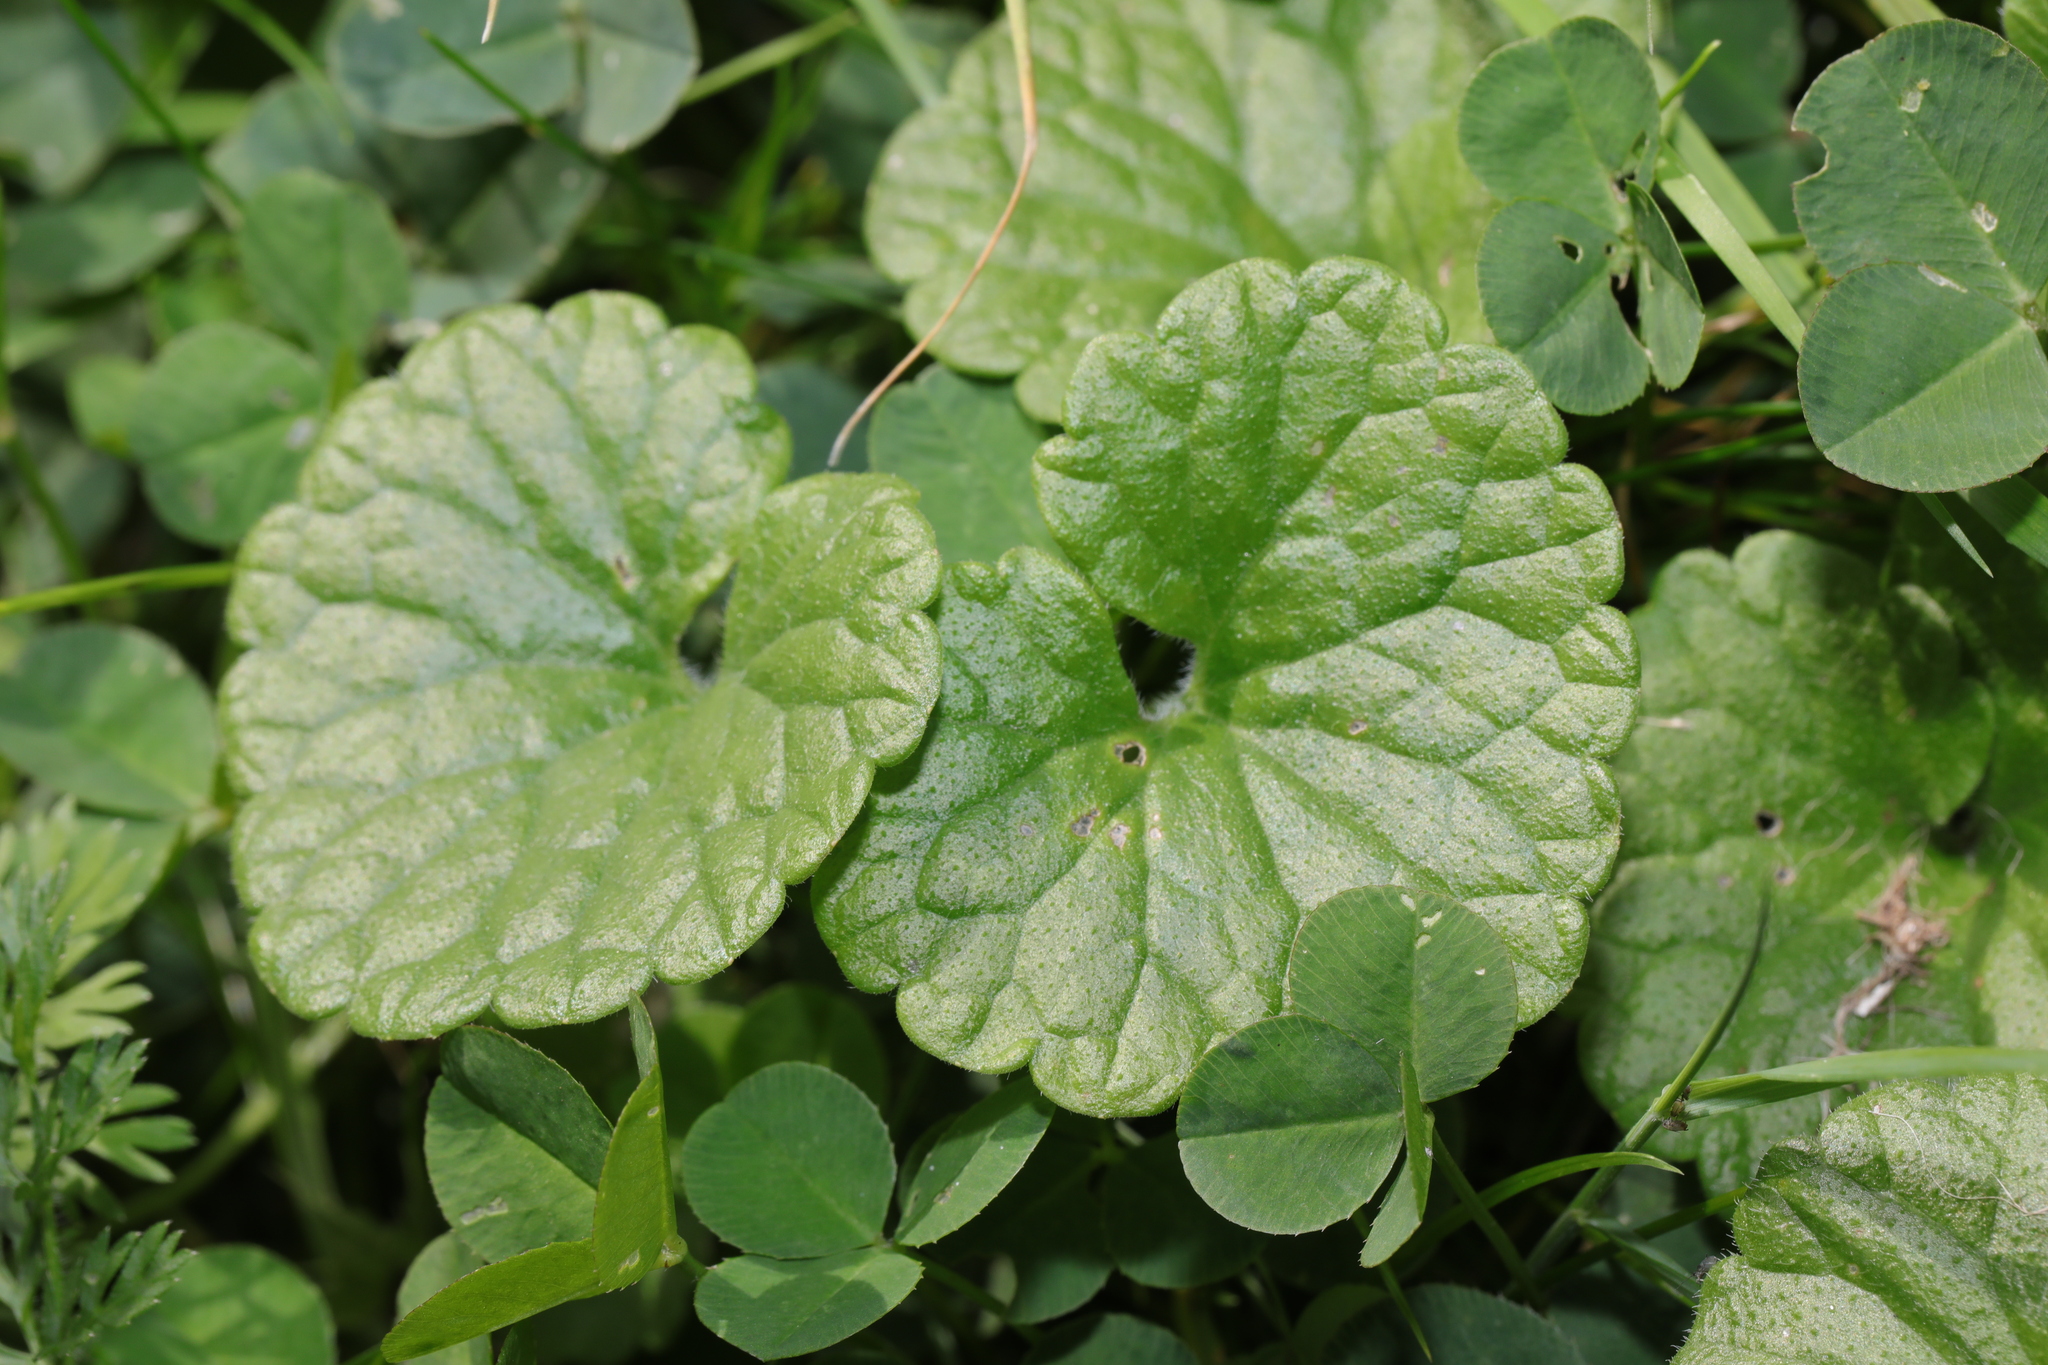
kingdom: Plantae
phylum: Tracheophyta
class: Magnoliopsida
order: Lamiales
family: Lamiaceae
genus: Glechoma
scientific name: Glechoma hederacea
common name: Ground ivy
